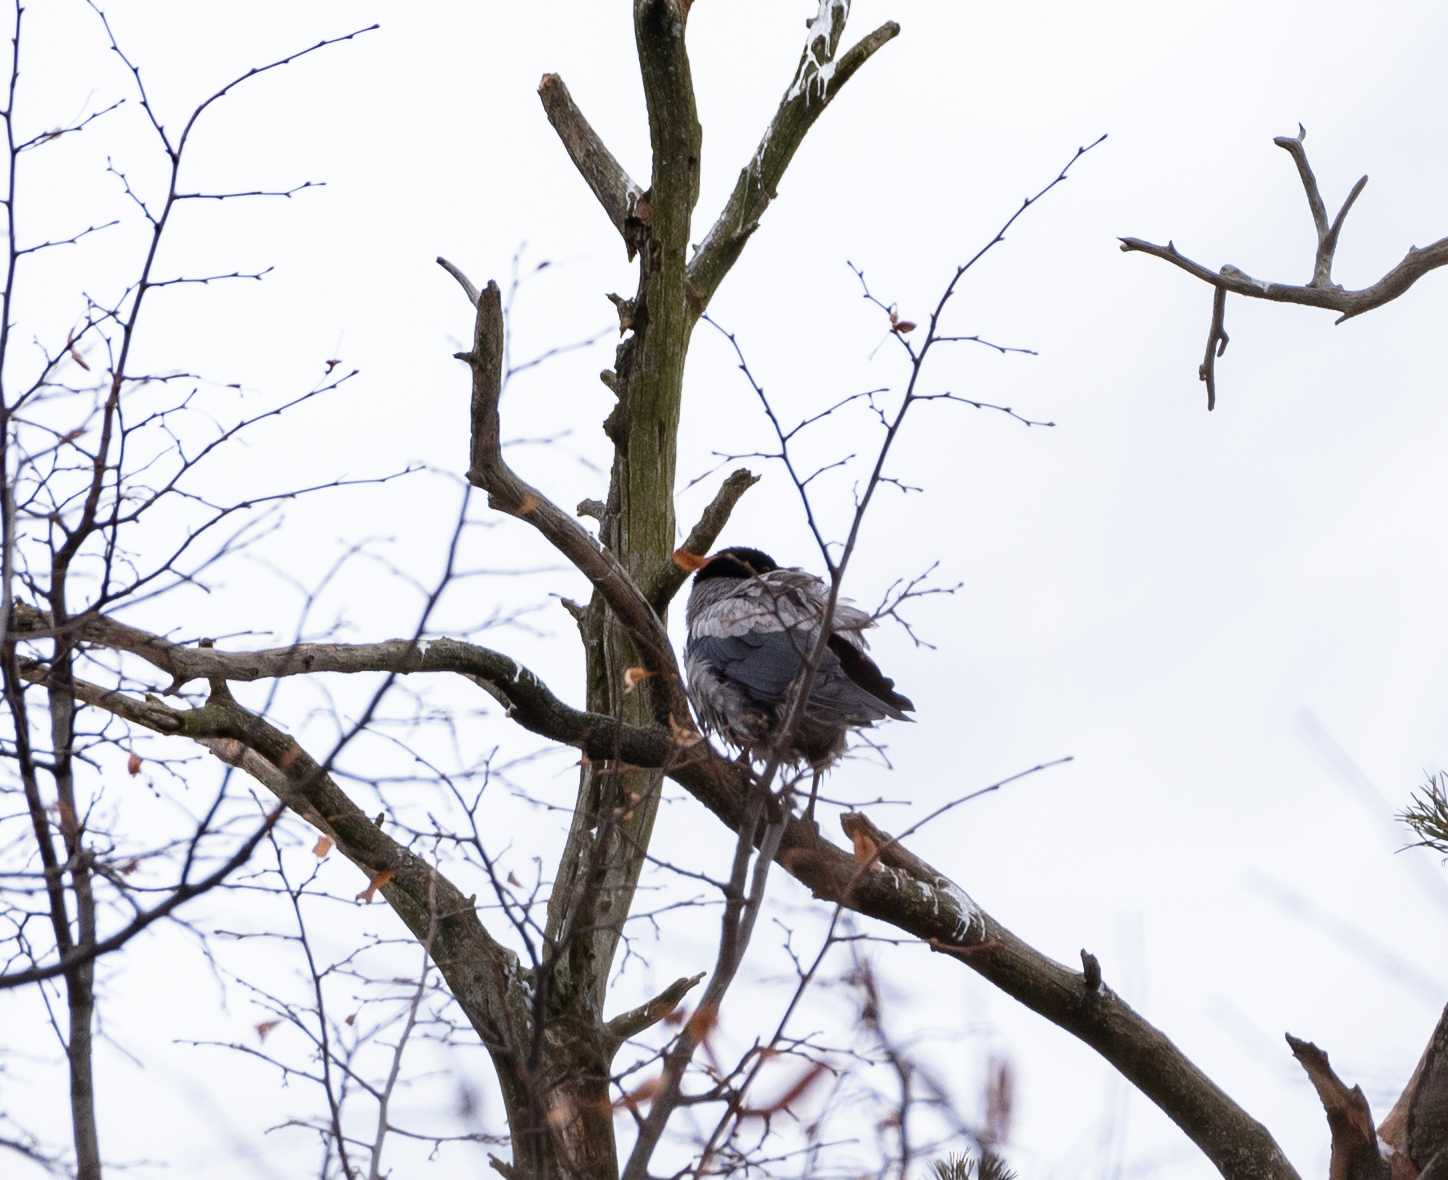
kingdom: Animalia
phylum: Chordata
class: Aves
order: Passeriformes
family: Corvidae
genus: Corvus
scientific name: Corvus cornix
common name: Hooded crow
